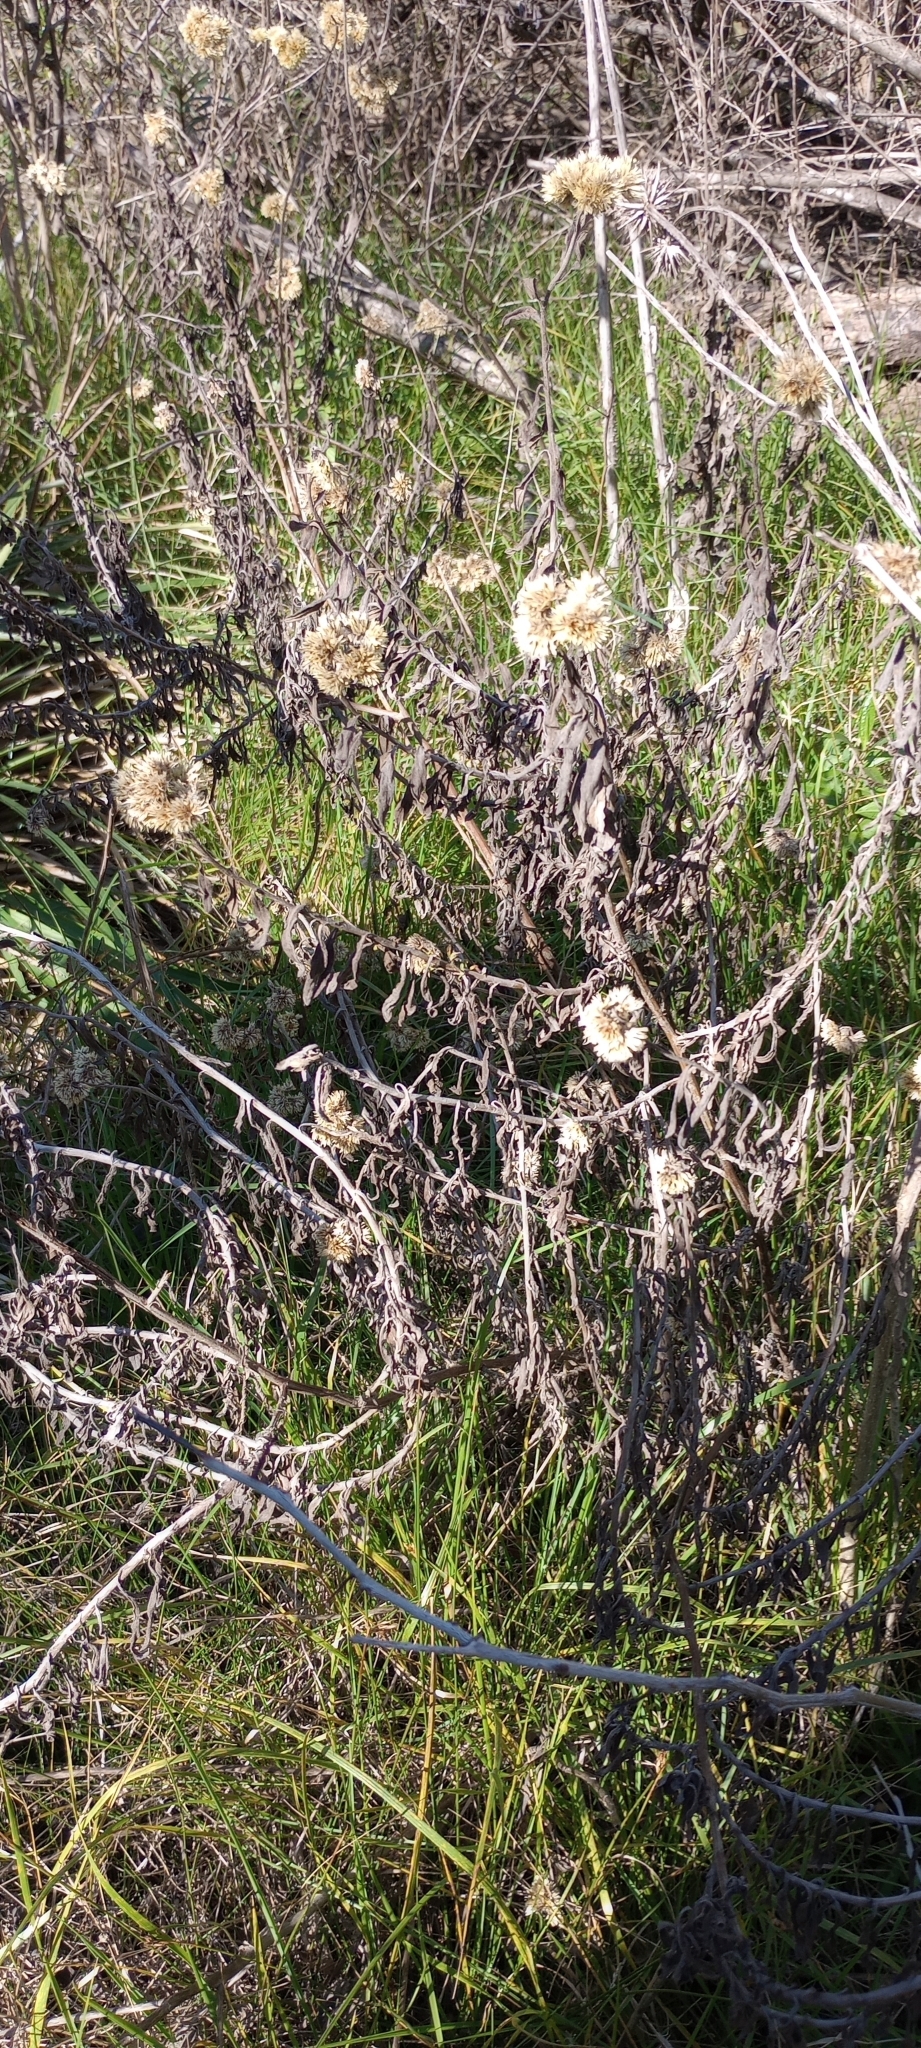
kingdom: Plantae
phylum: Tracheophyta
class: Magnoliopsida
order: Asterales
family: Asteraceae
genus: Achyrocline
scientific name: Achyrocline satureioides
